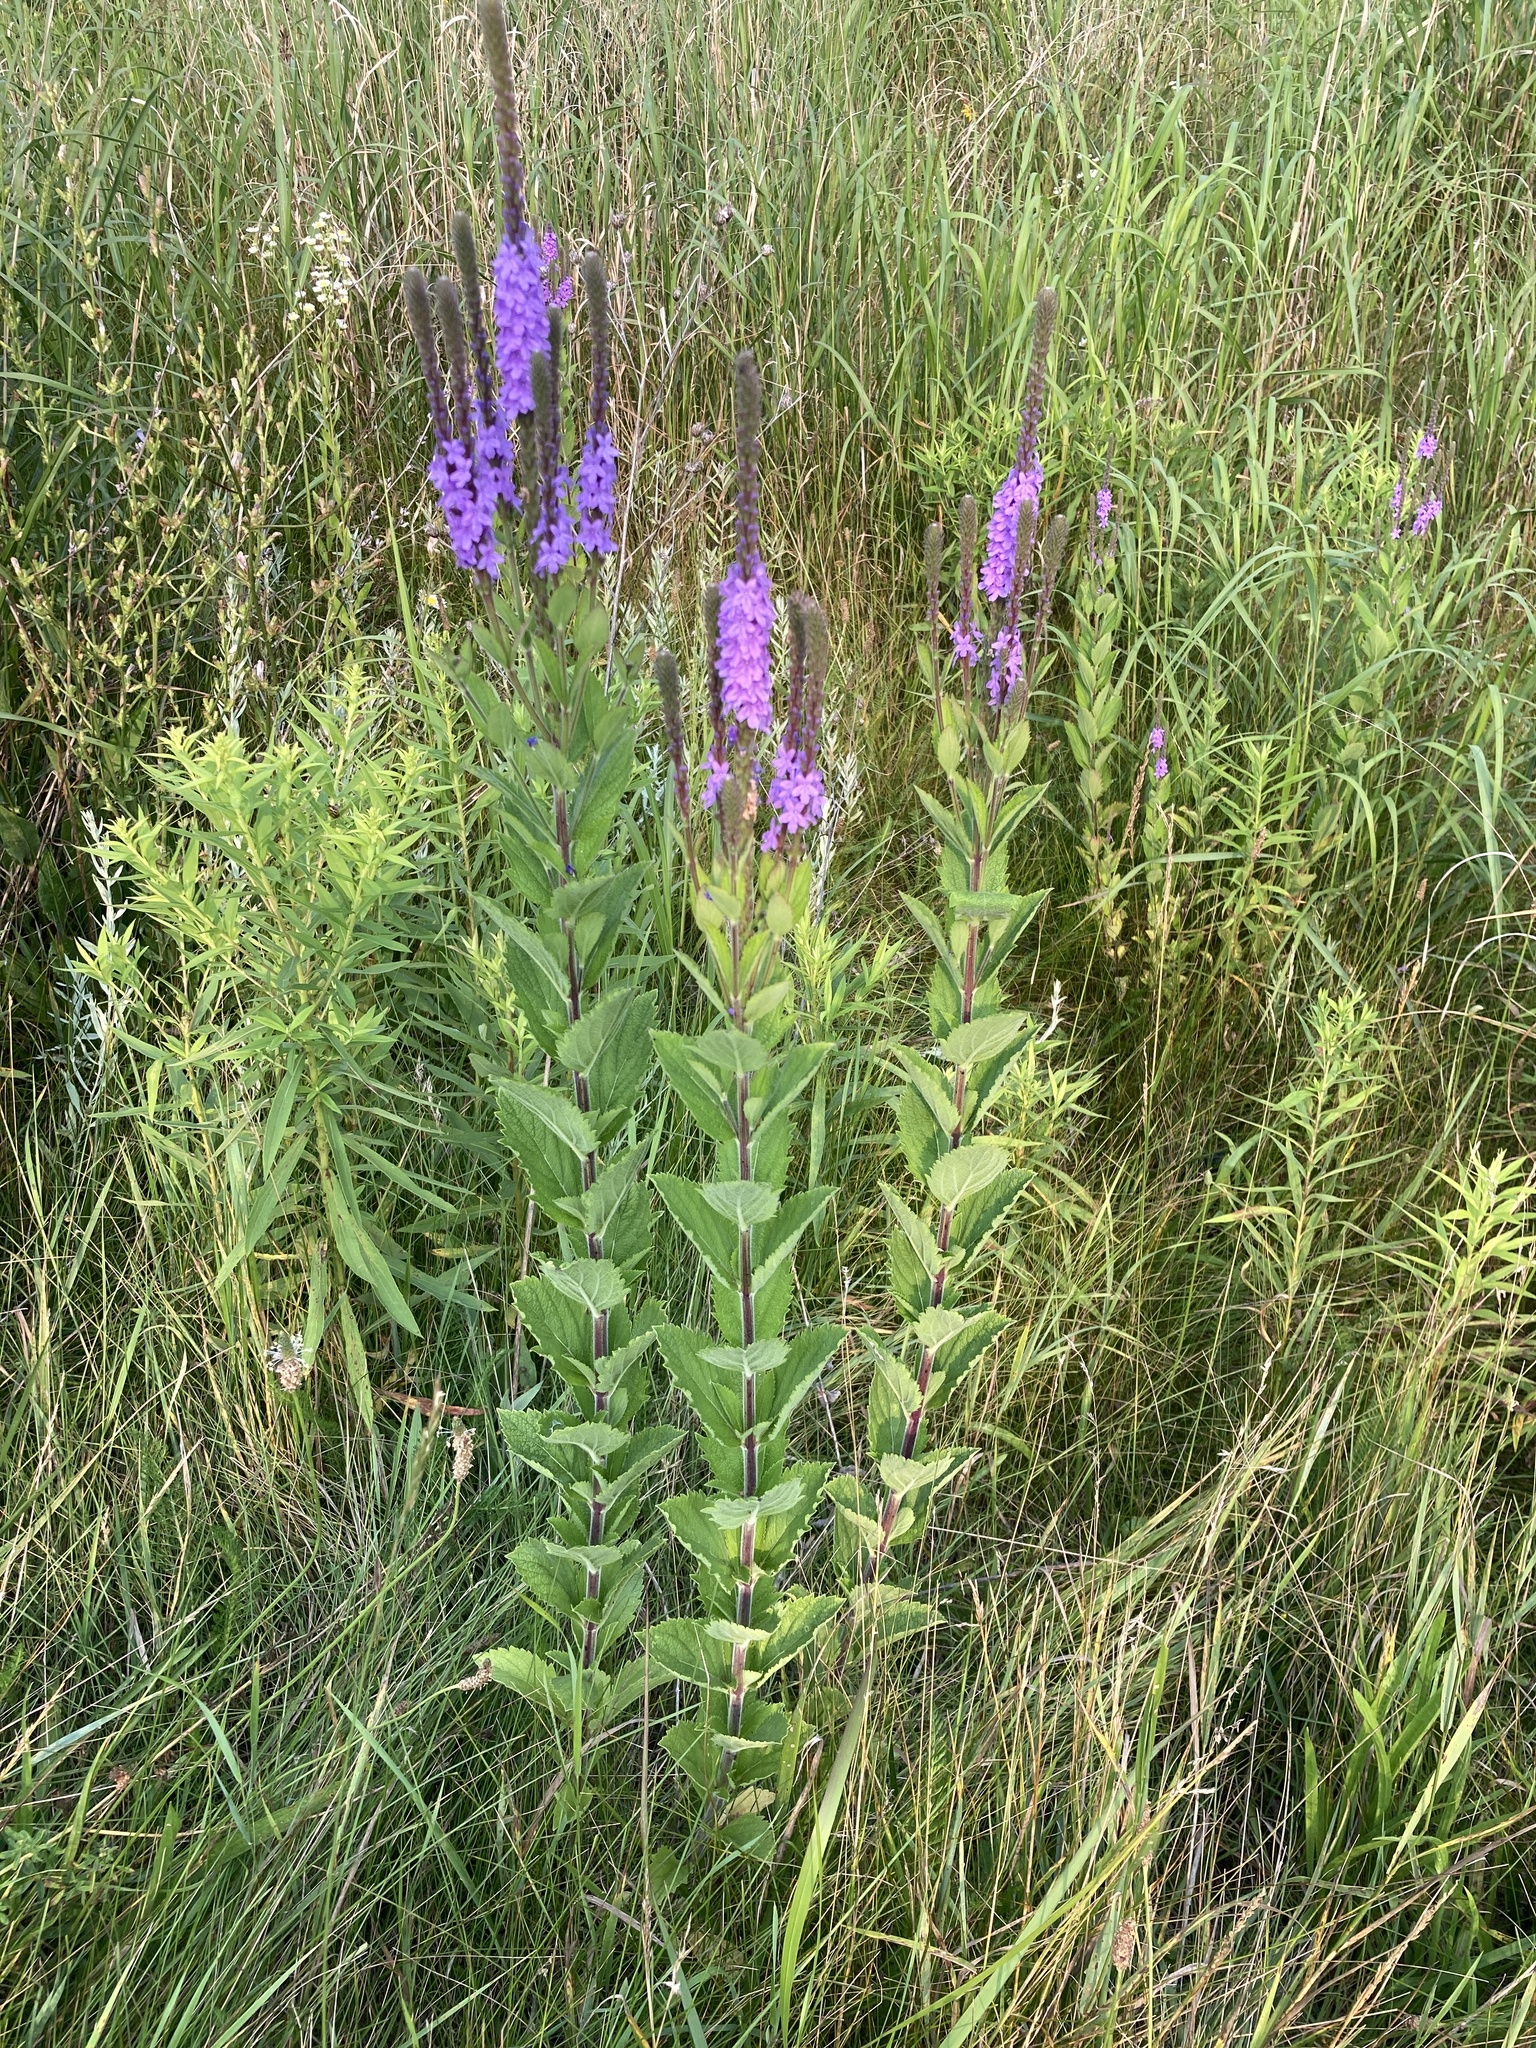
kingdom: Plantae
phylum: Tracheophyta
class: Magnoliopsida
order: Lamiales
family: Verbenaceae
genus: Verbena
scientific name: Verbena stricta
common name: Hoary vervain
